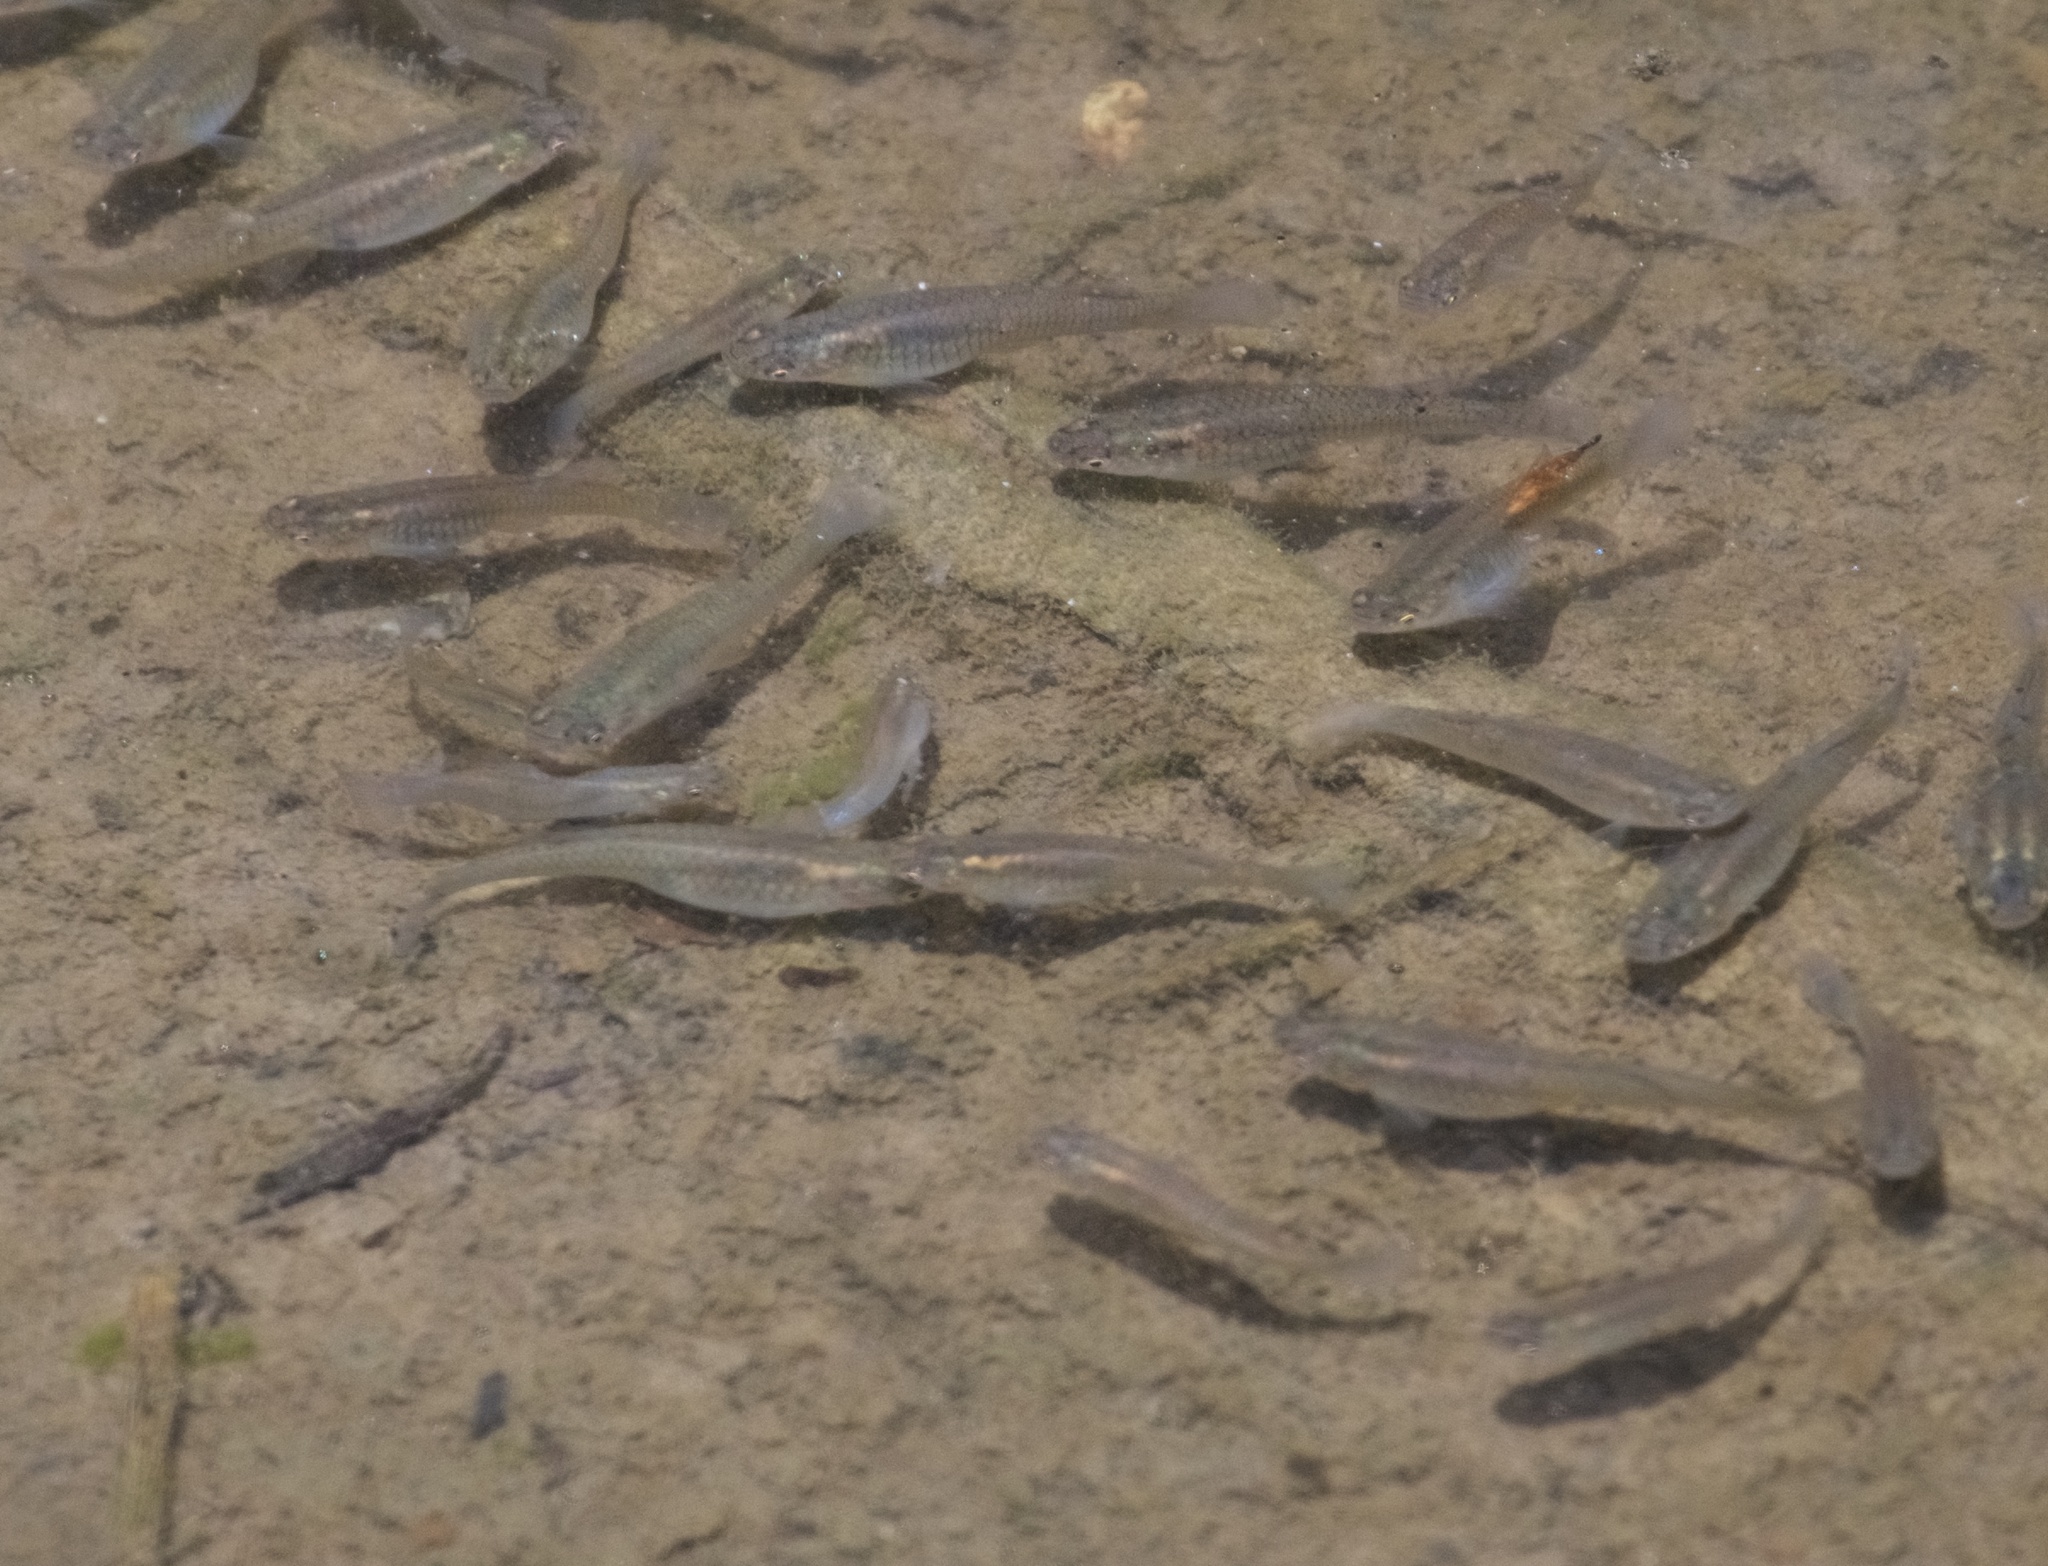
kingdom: Animalia
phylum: Chordata
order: Cyprinodontiformes
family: Poeciliidae
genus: Gambusia
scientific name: Gambusia affinis
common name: Mosquitofish
